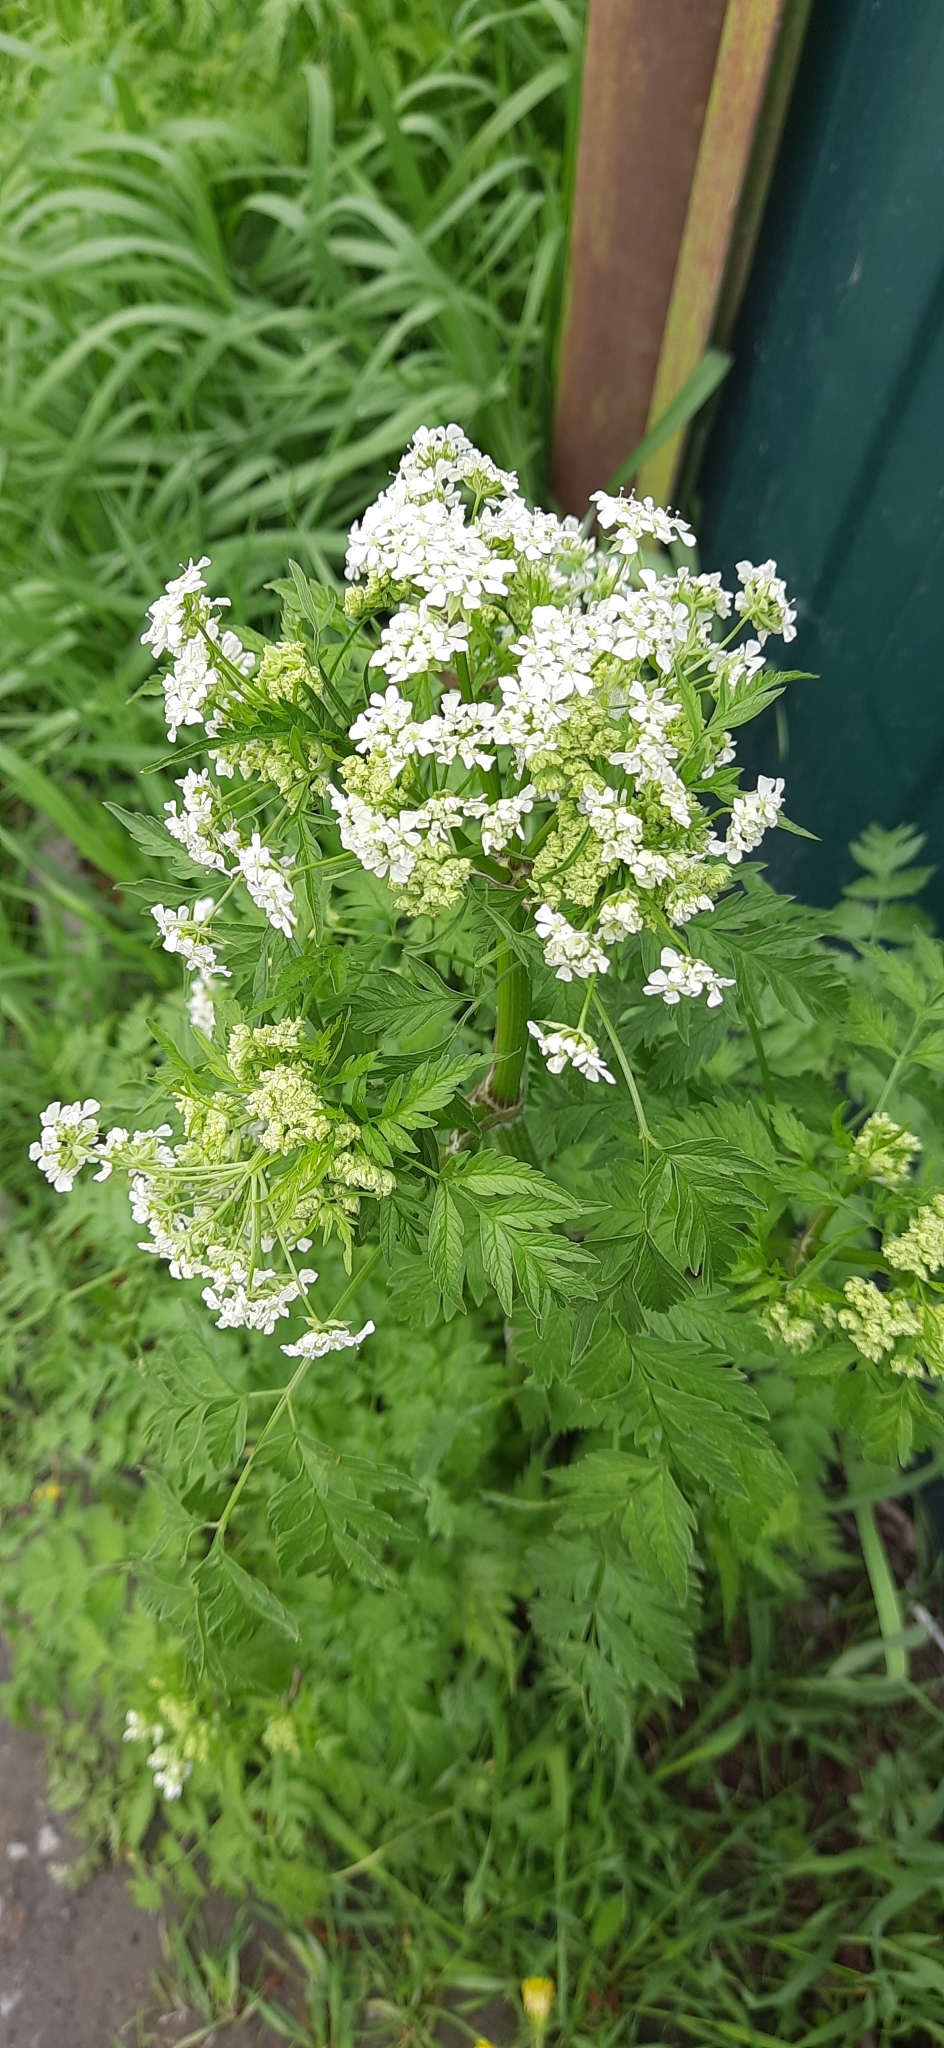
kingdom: Plantae
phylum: Tracheophyta
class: Magnoliopsida
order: Apiales
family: Apiaceae
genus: Anthriscus
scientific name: Anthriscus sylvestris
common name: Cow parsley
